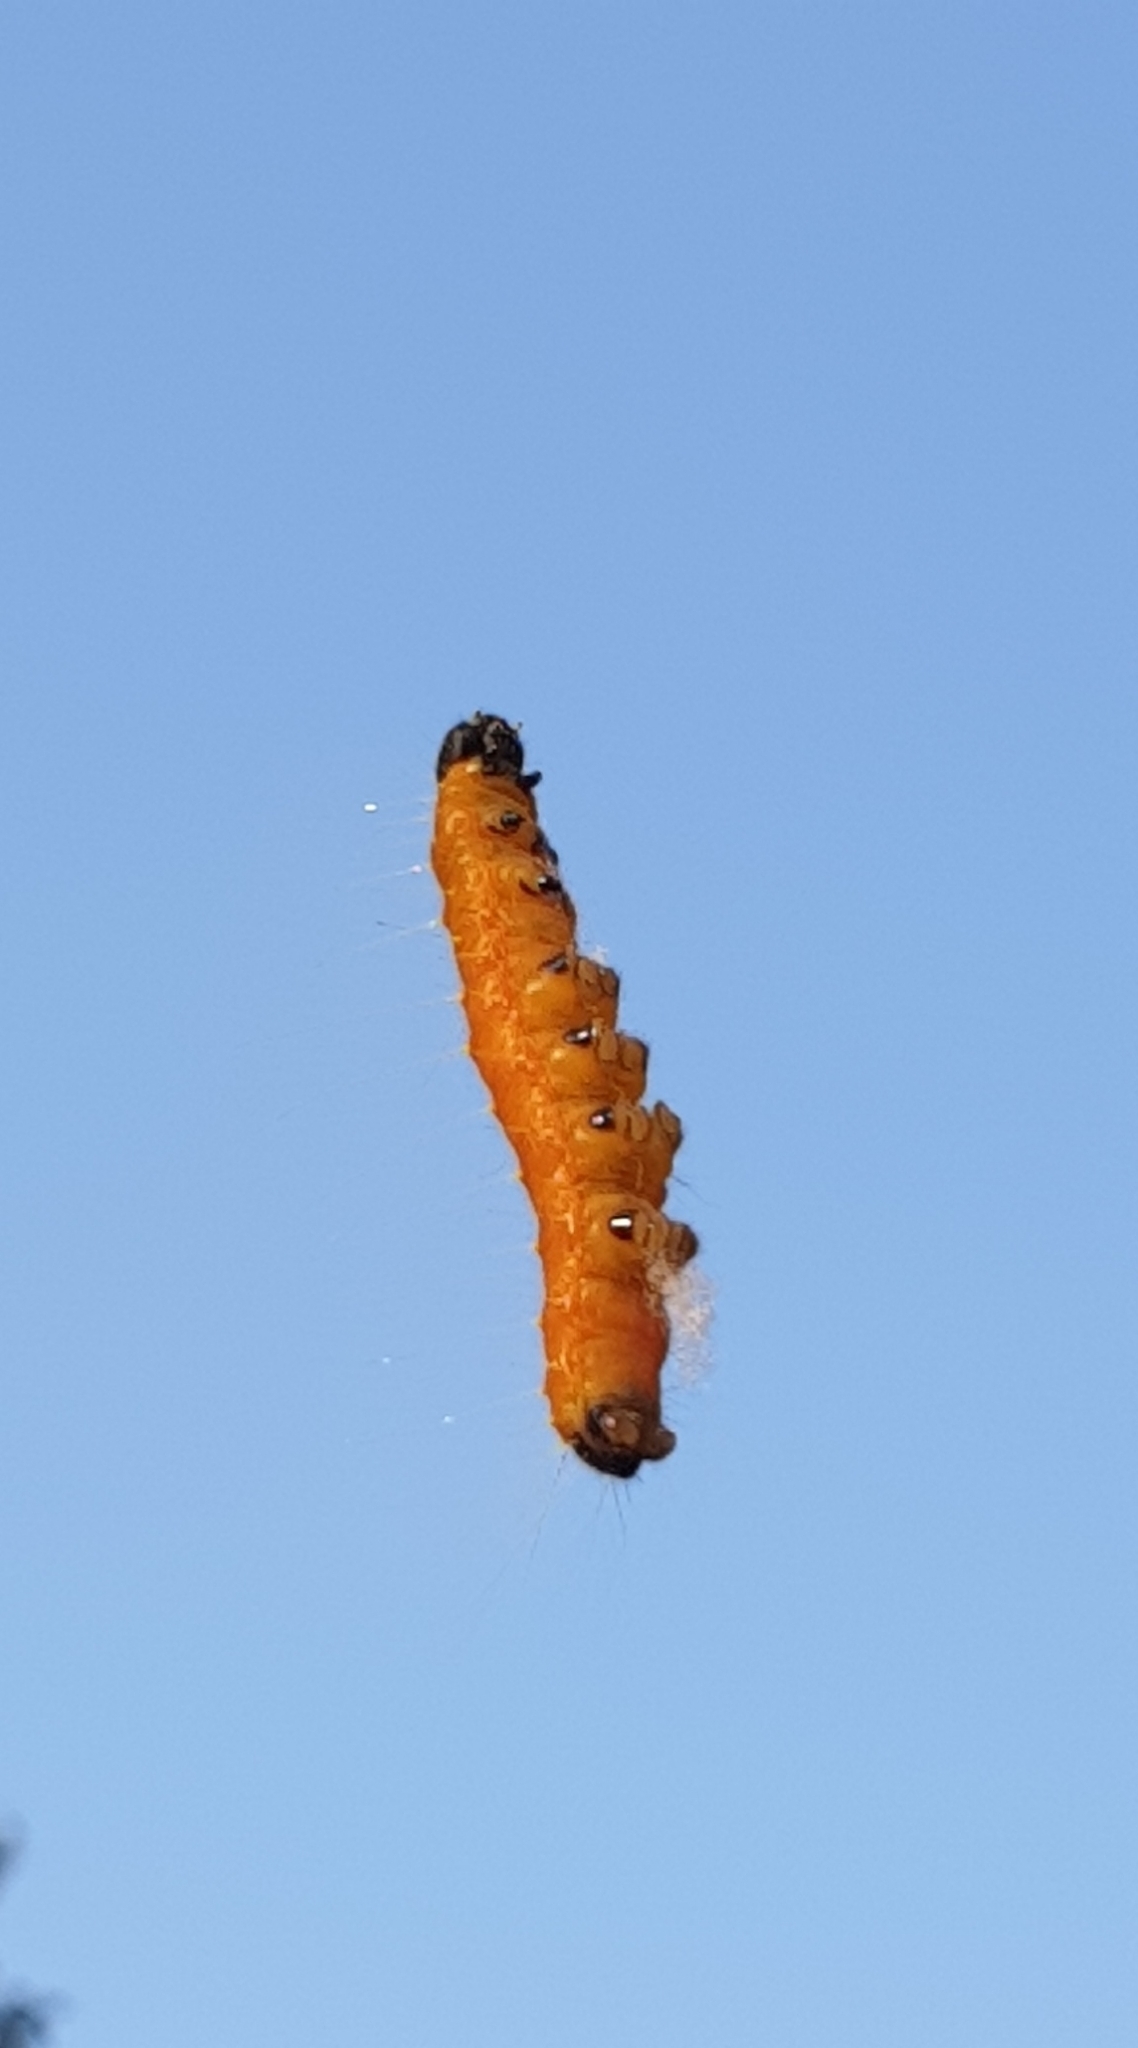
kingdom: Animalia
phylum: Arthropoda
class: Insecta
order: Lepidoptera
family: Pieridae
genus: Delias
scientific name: Delias hyparete
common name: Painted jezebel
